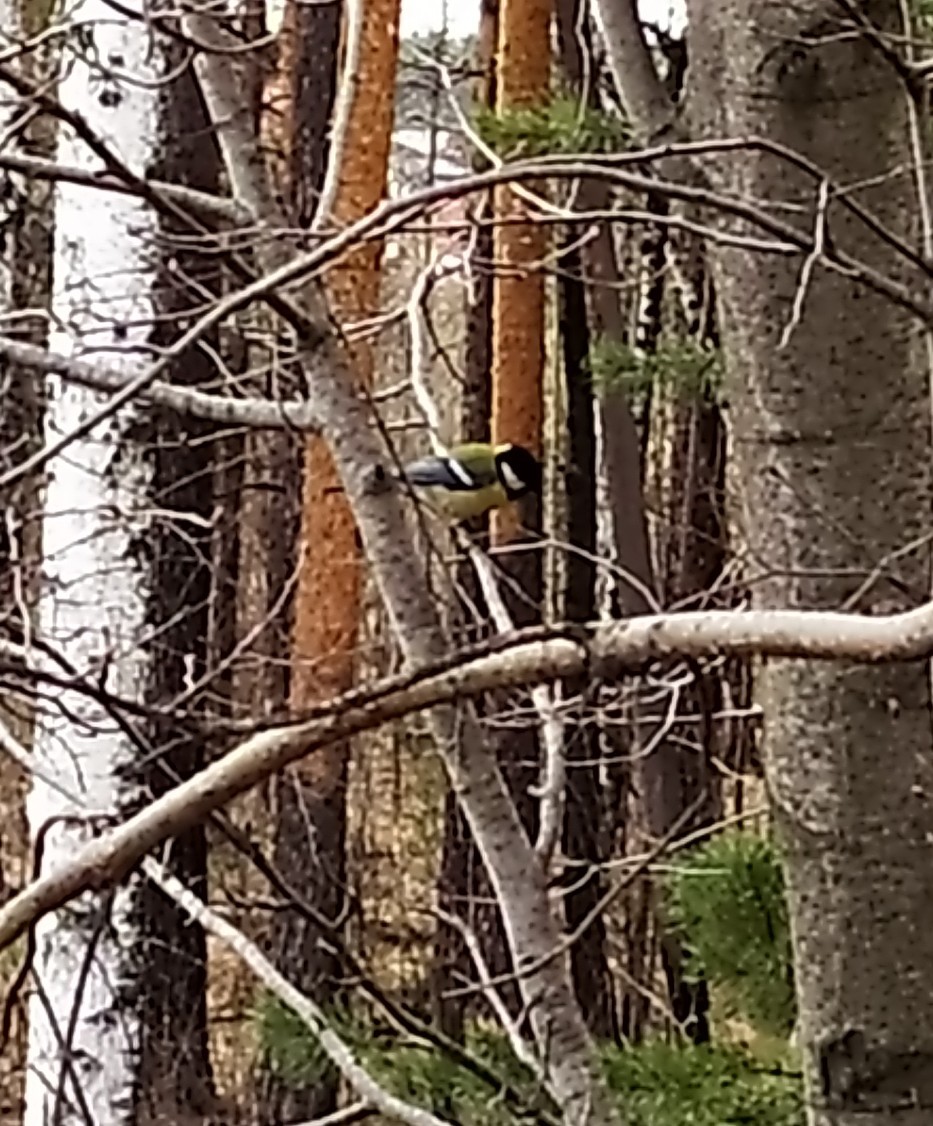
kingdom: Animalia
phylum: Chordata
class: Aves
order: Passeriformes
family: Paridae
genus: Parus
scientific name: Parus major
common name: Great tit
